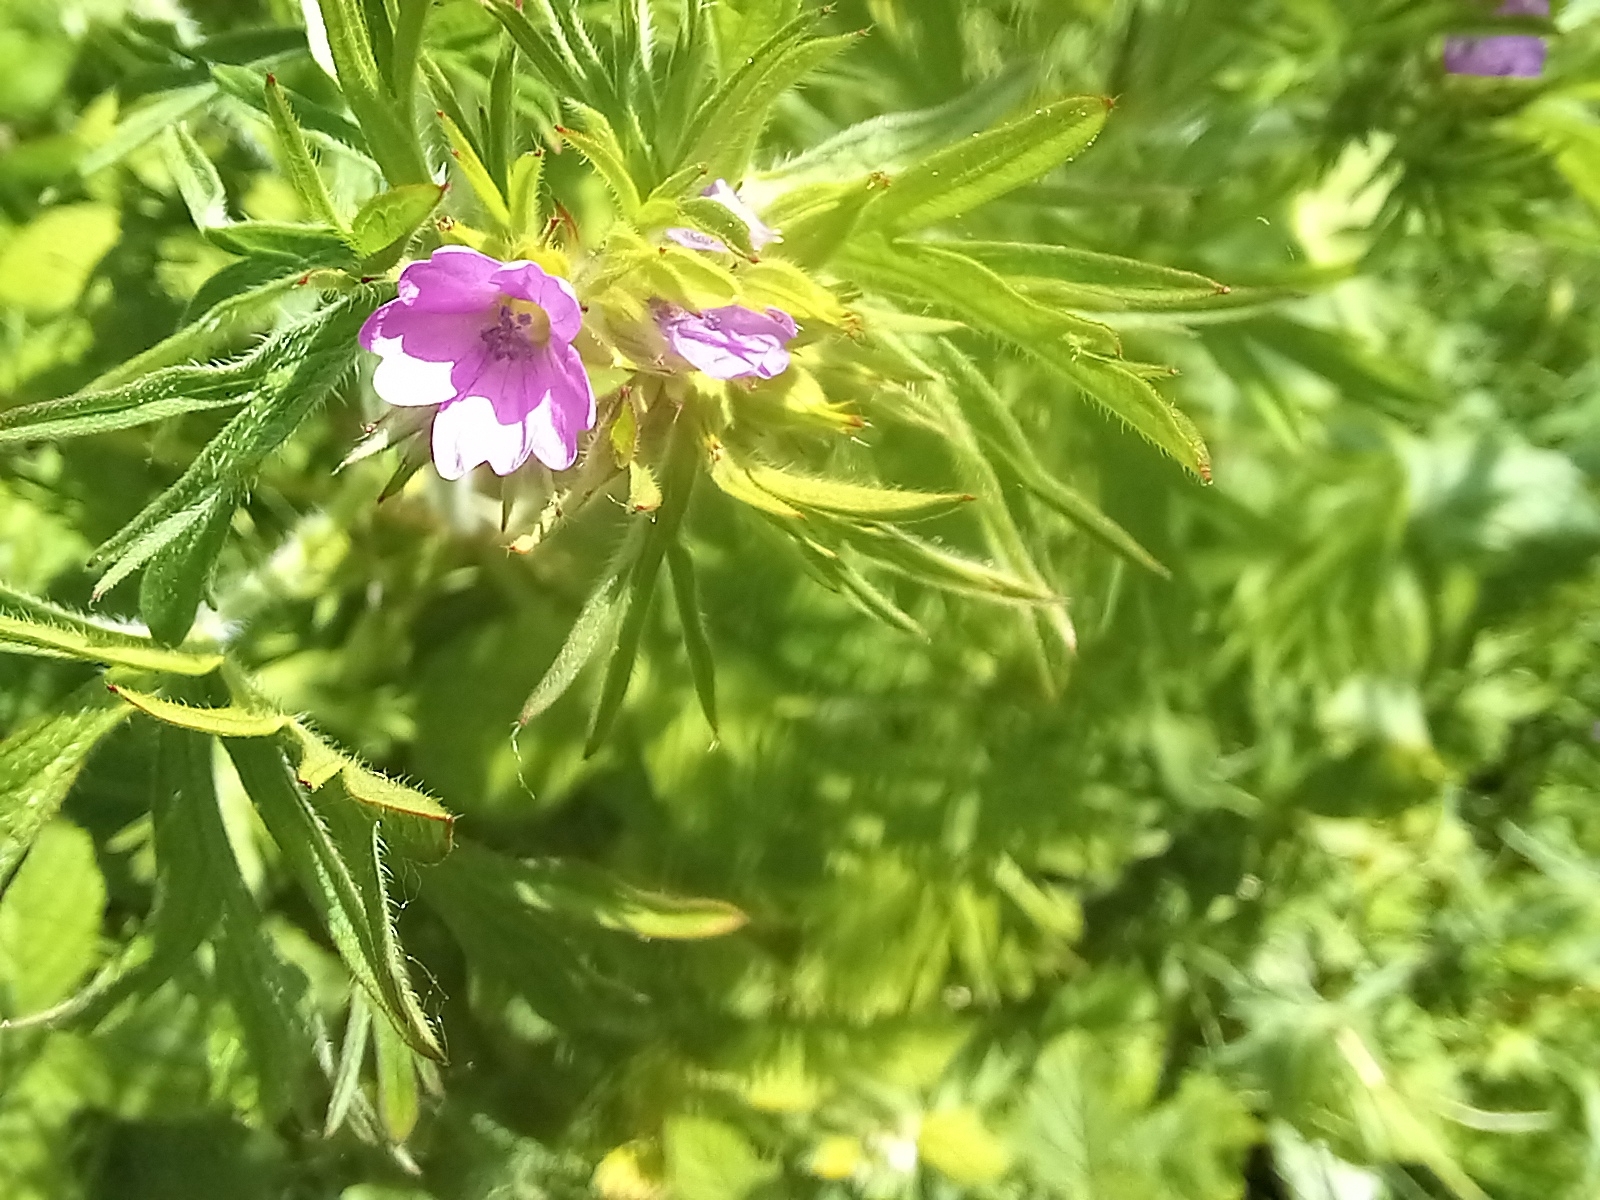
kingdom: Plantae
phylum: Tracheophyta
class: Magnoliopsida
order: Geraniales
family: Geraniaceae
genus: Geranium
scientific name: Geranium dissectum
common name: Cut-leaved crane's-bill
